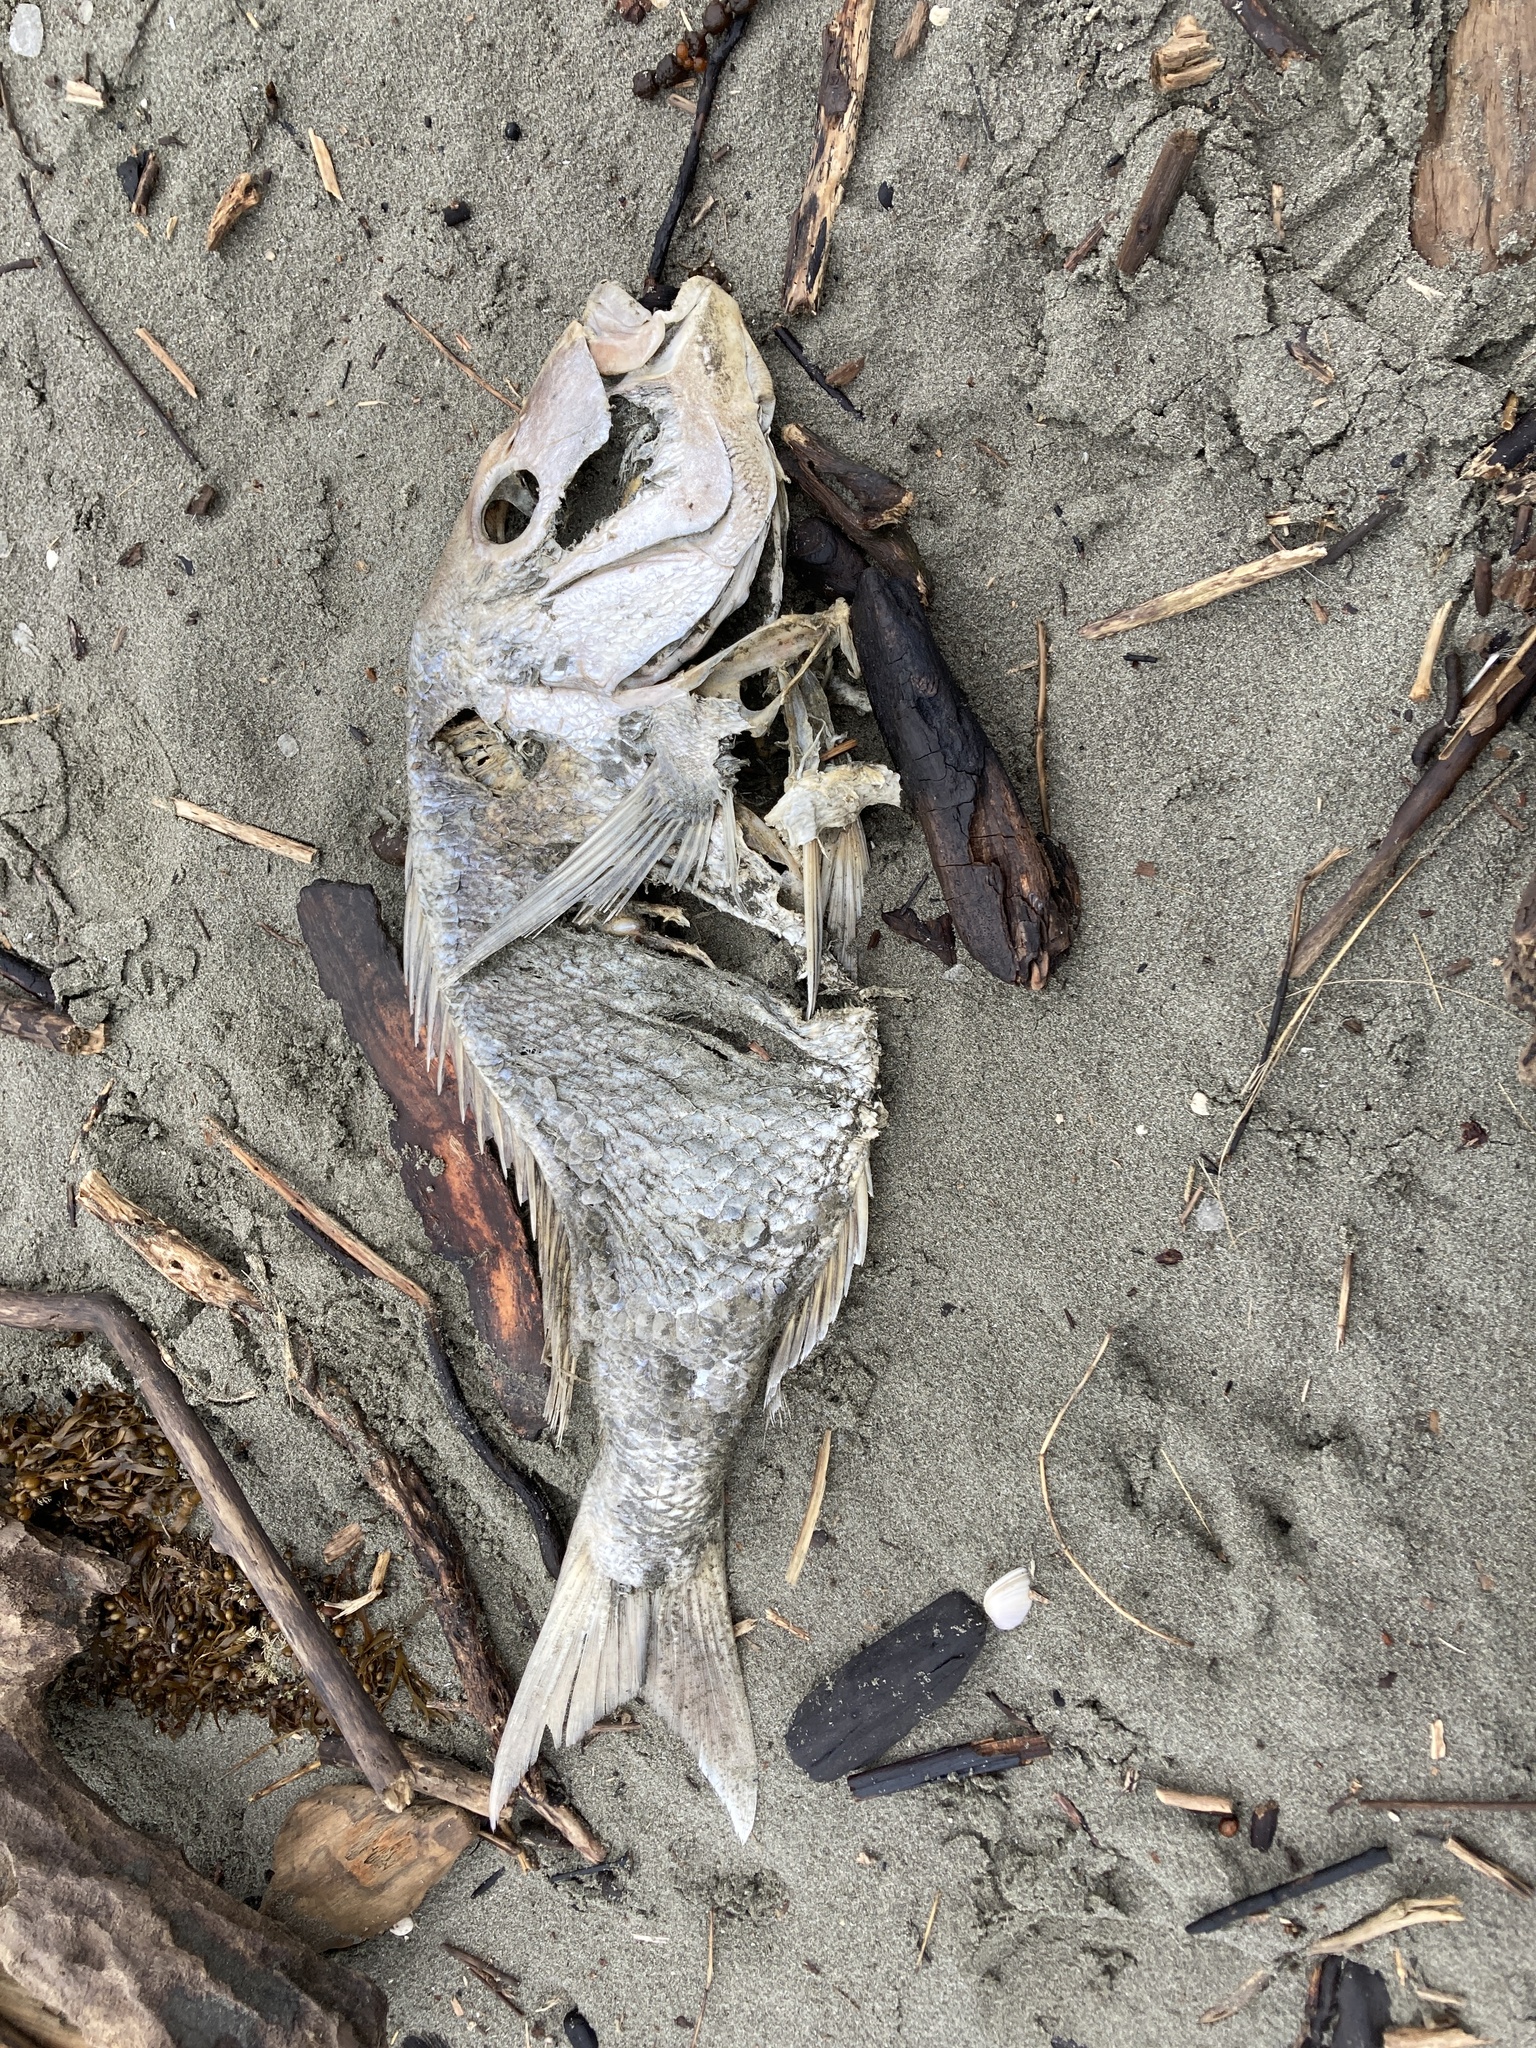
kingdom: Animalia
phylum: Chordata
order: Perciformes
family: Sparidae
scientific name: Sparidae
